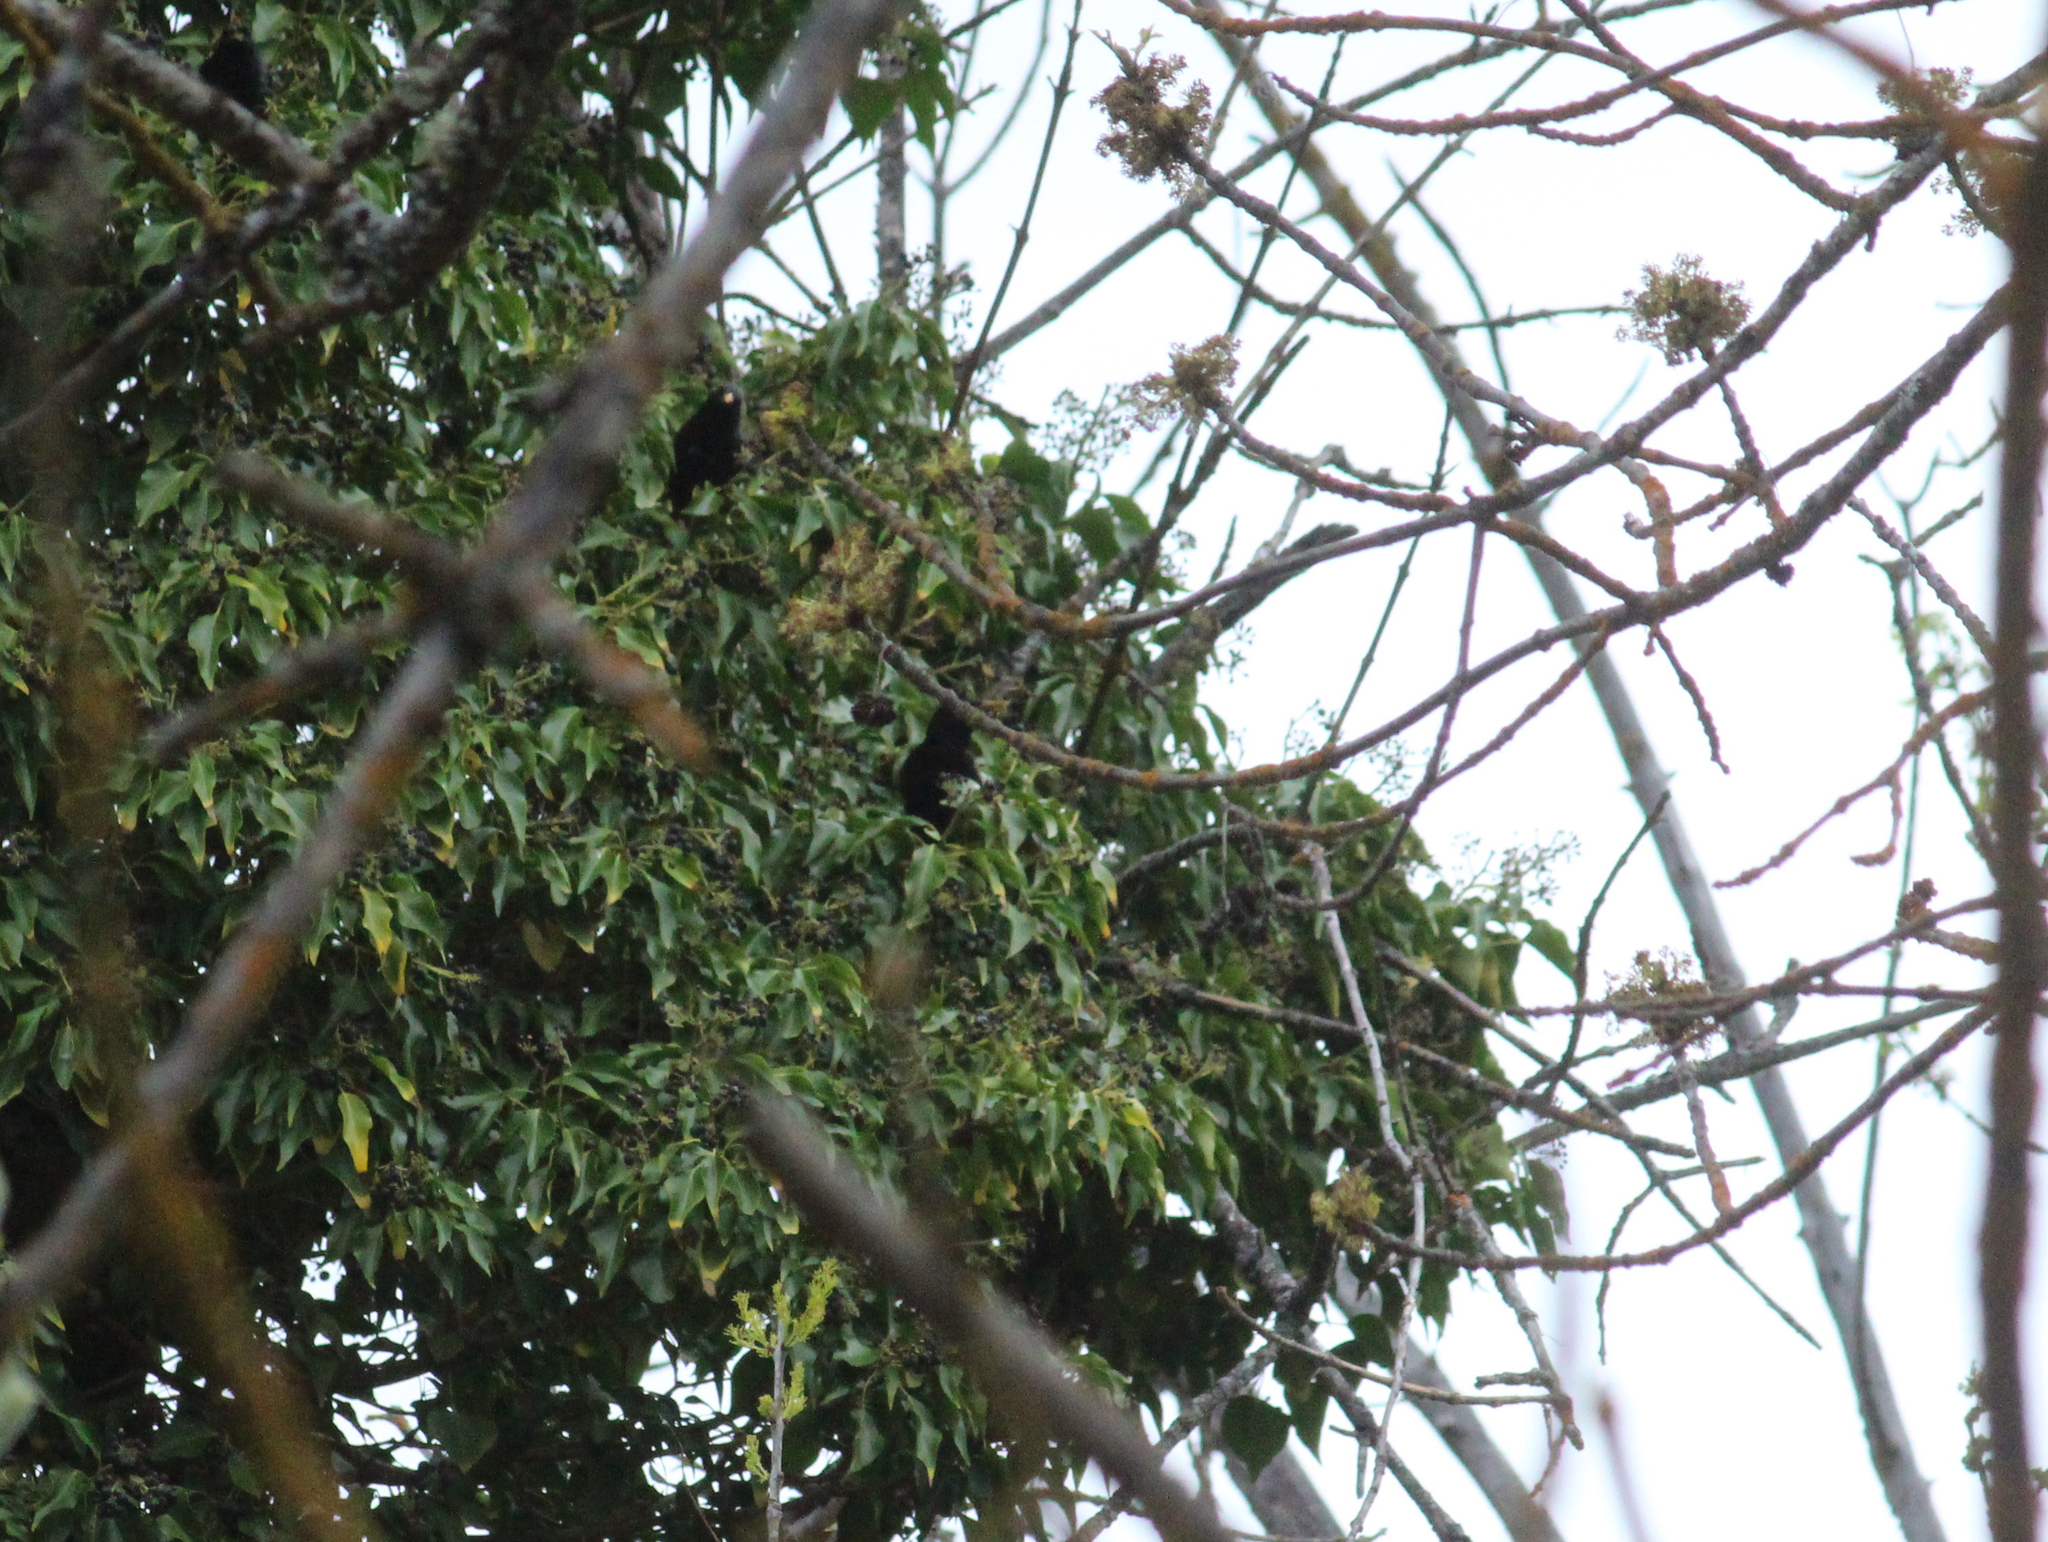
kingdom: Animalia
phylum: Chordata
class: Aves
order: Passeriformes
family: Sturnidae
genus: Sturnus
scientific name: Sturnus vulgaris
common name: Common starling
